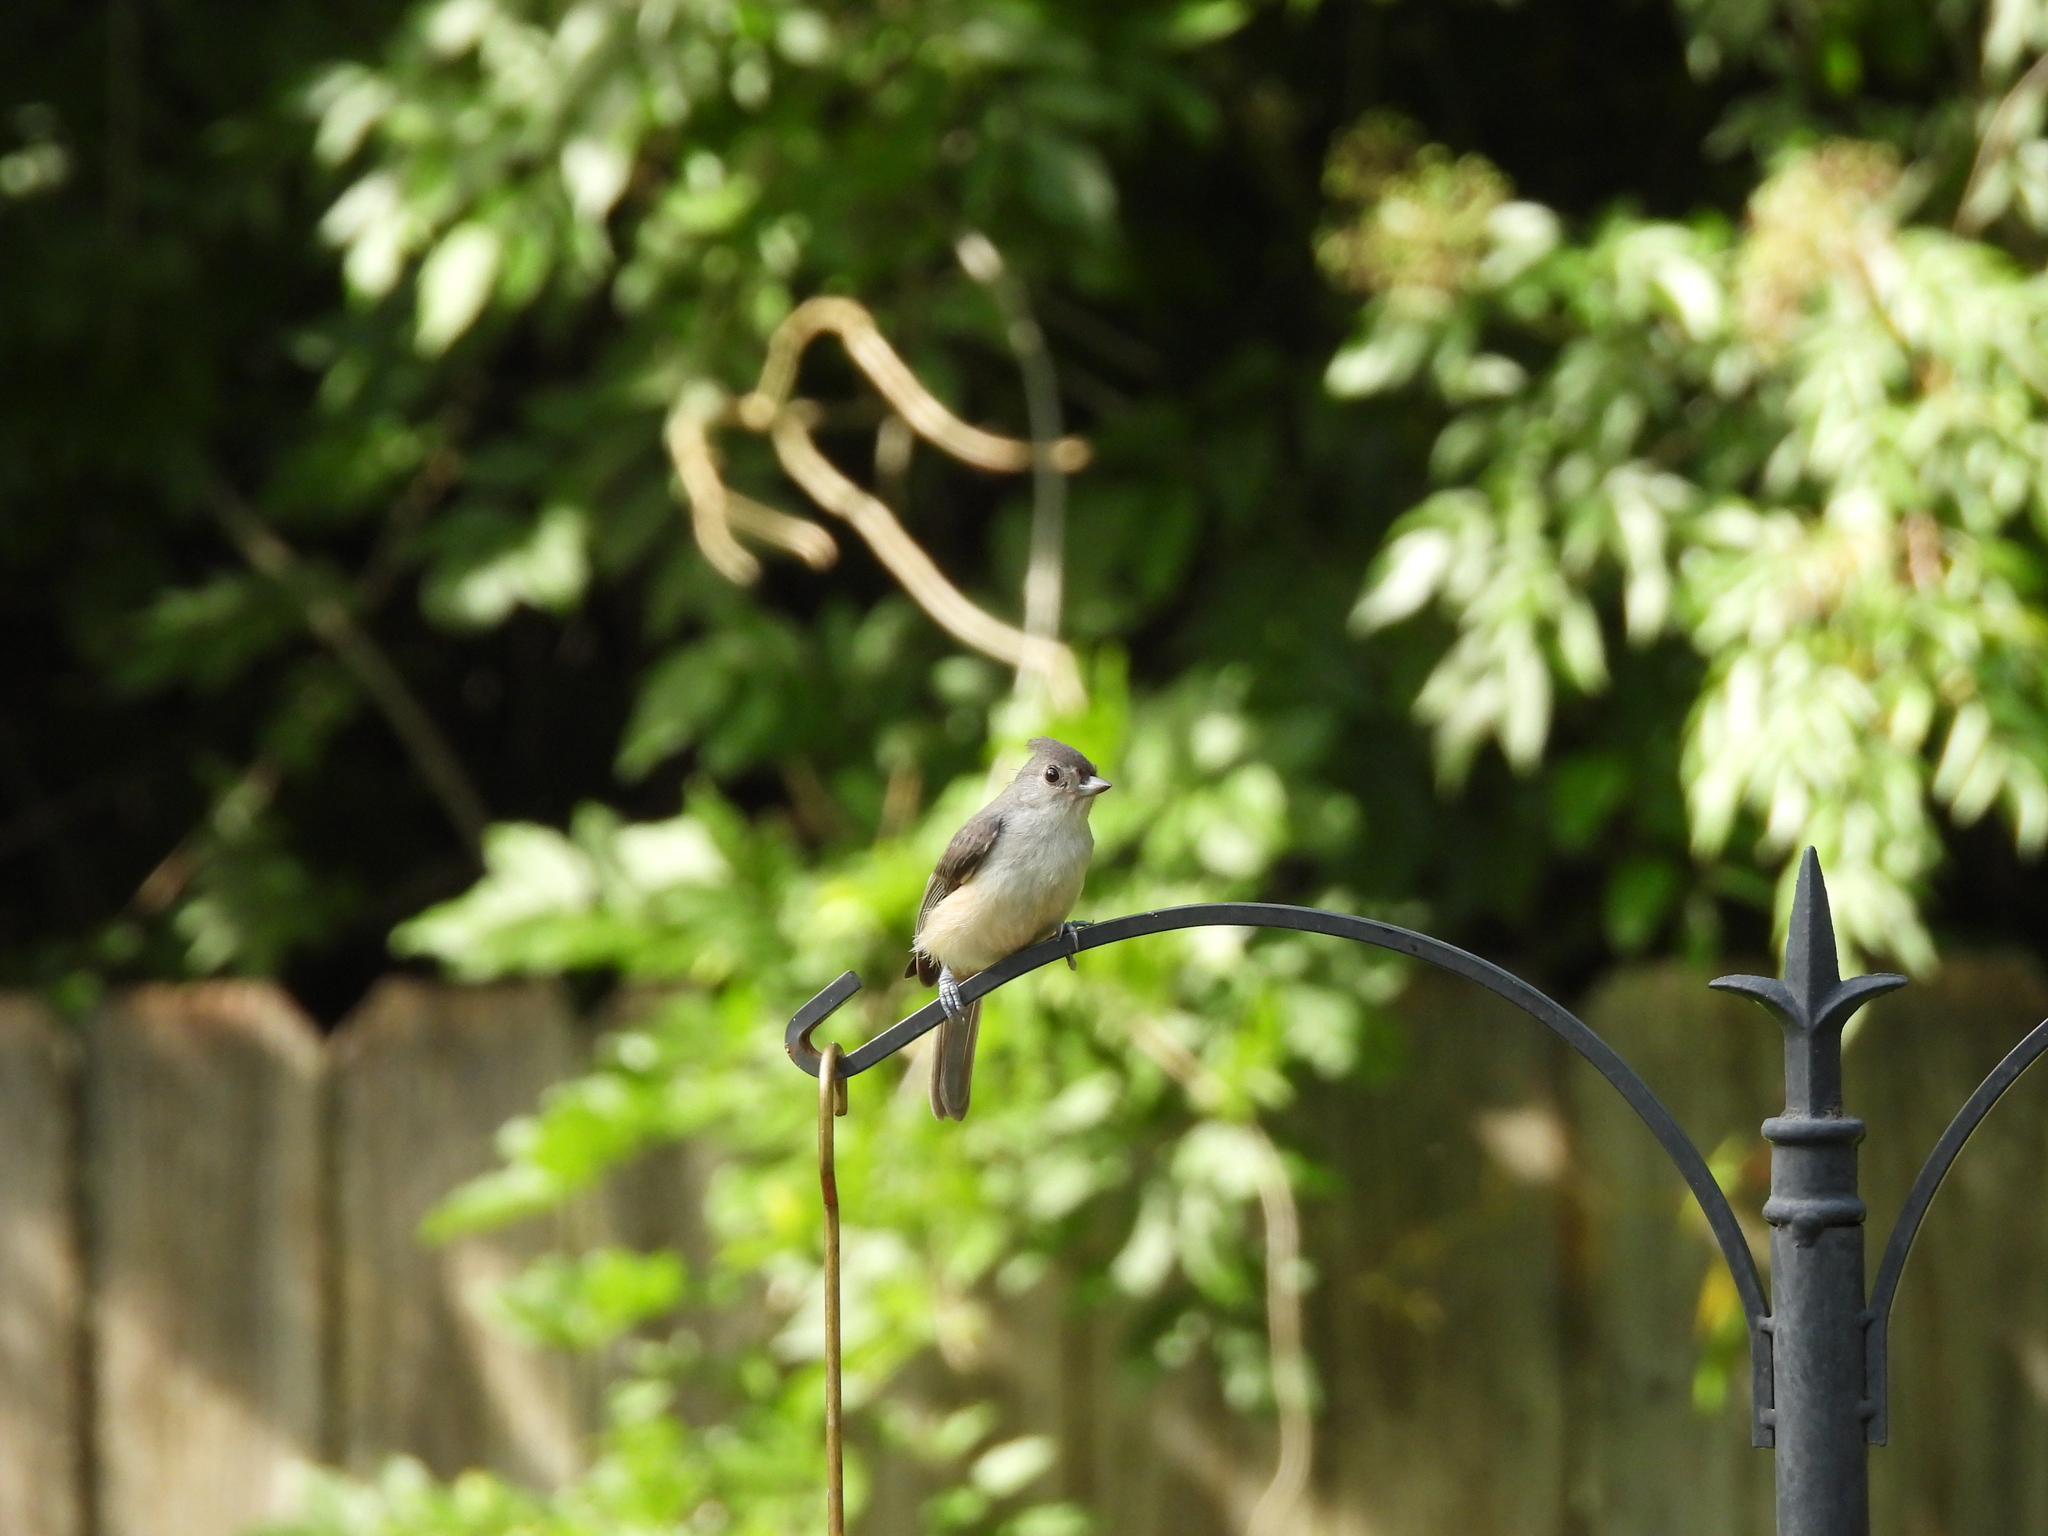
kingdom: Animalia
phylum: Chordata
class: Aves
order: Passeriformes
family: Paridae
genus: Baeolophus
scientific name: Baeolophus bicolor
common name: Tufted titmouse
